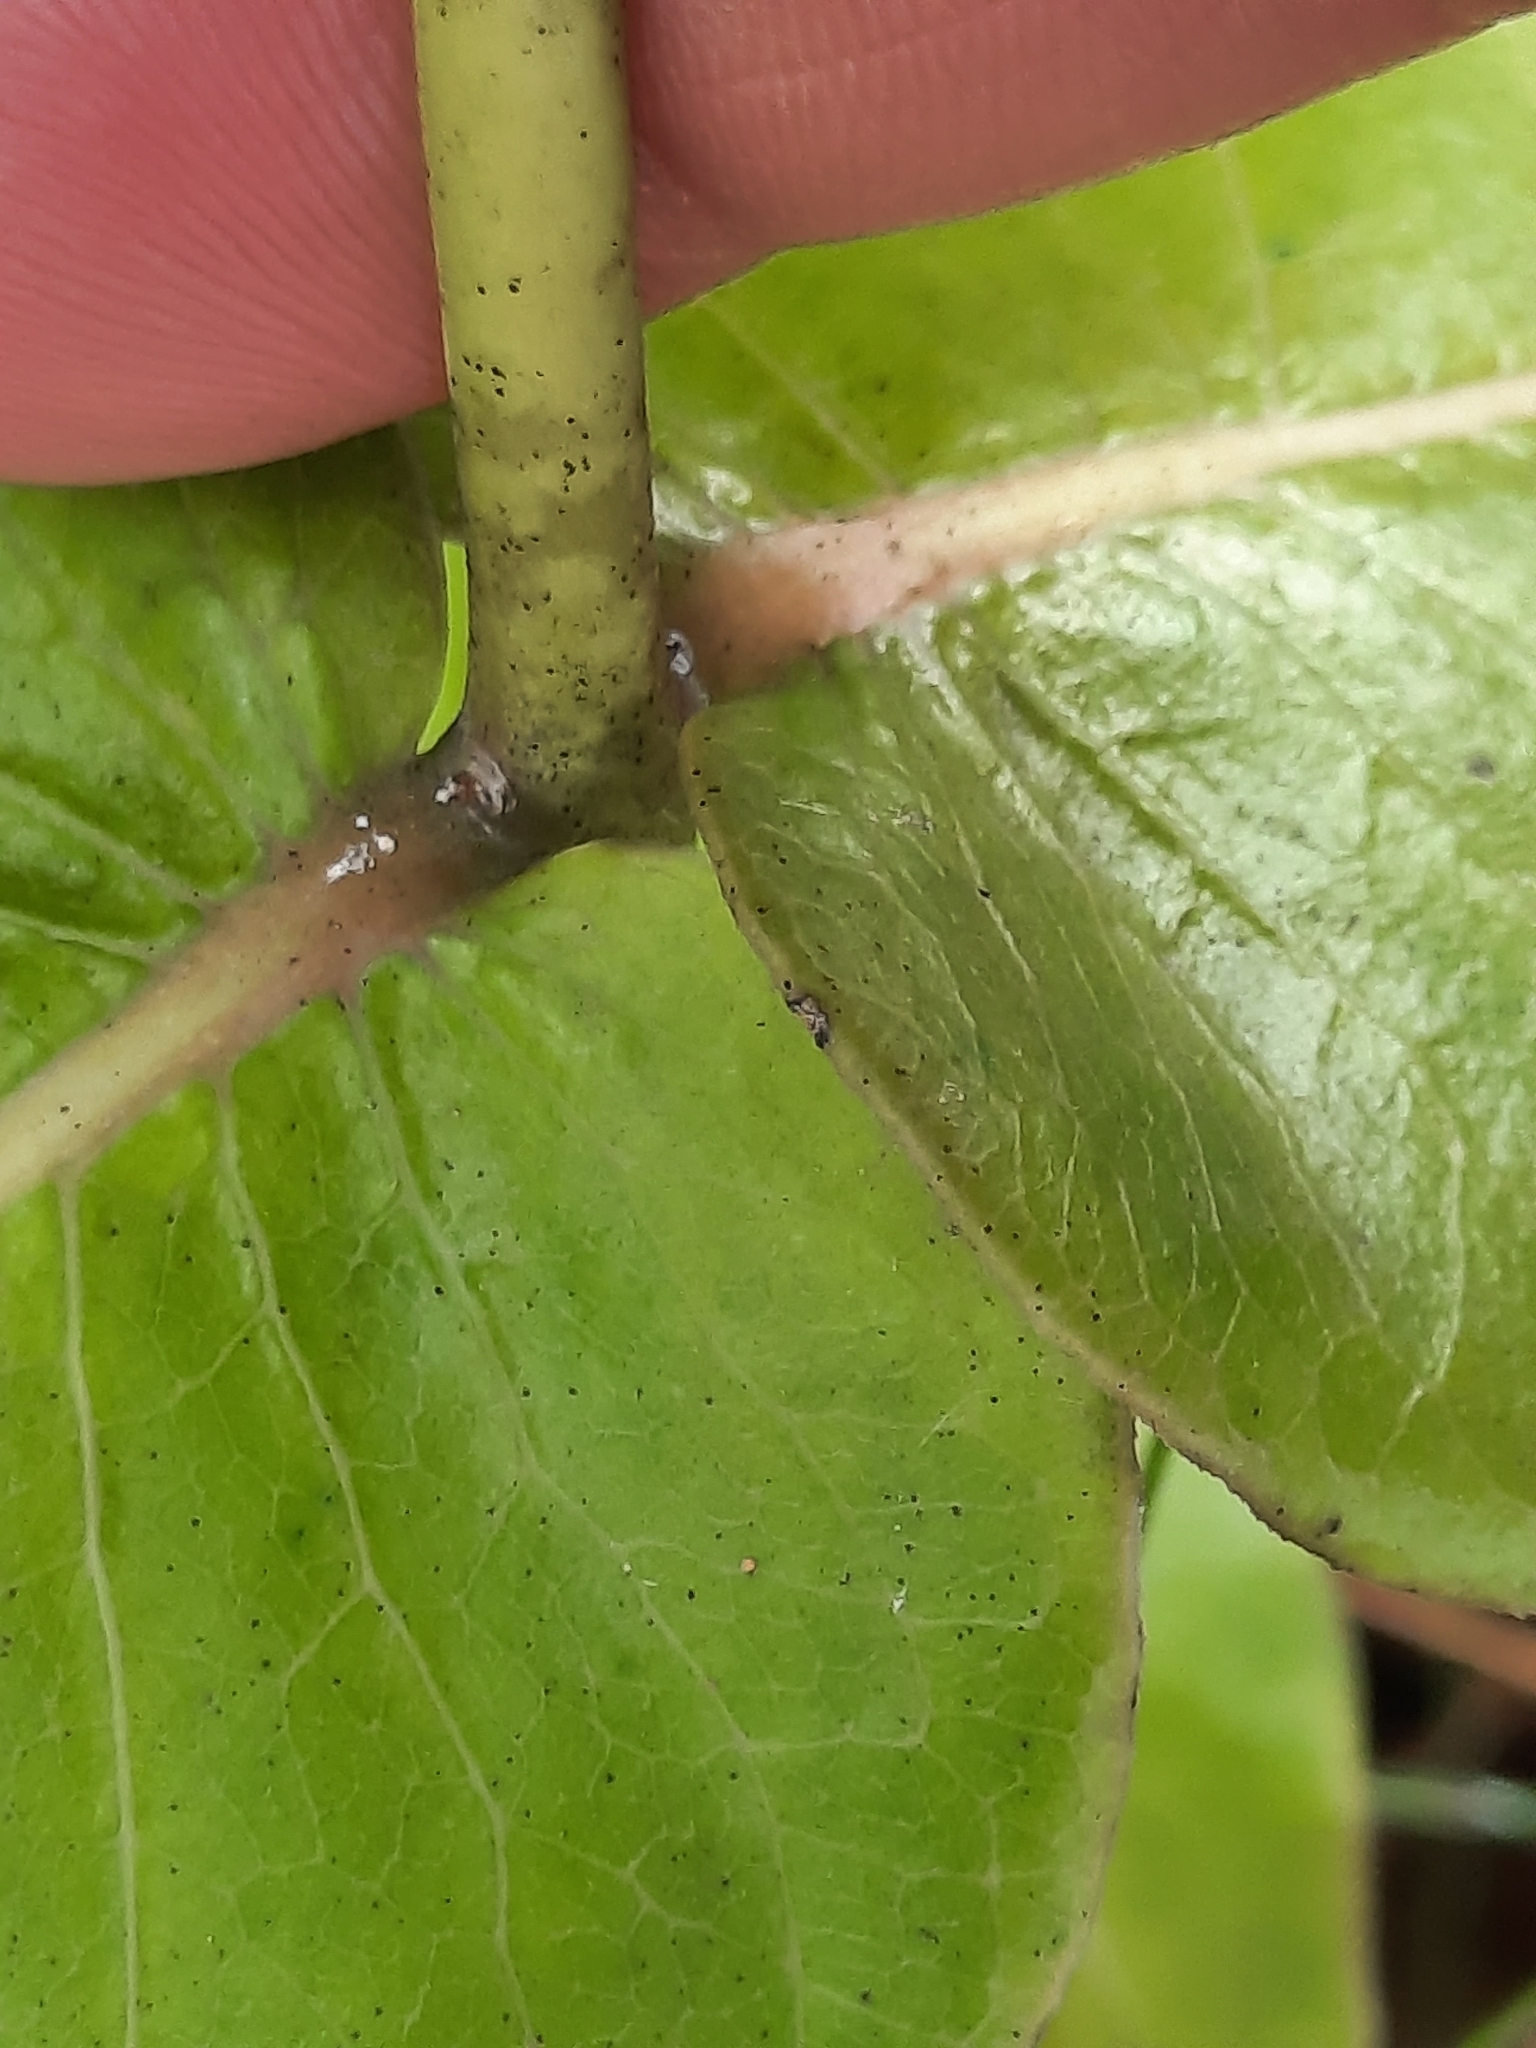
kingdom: Plantae
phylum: Tracheophyta
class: Magnoliopsida
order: Gentianales
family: Apocynaceae
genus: Asclepias
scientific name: Asclepias amplexicaulis
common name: Blunt-leaf milkweed
